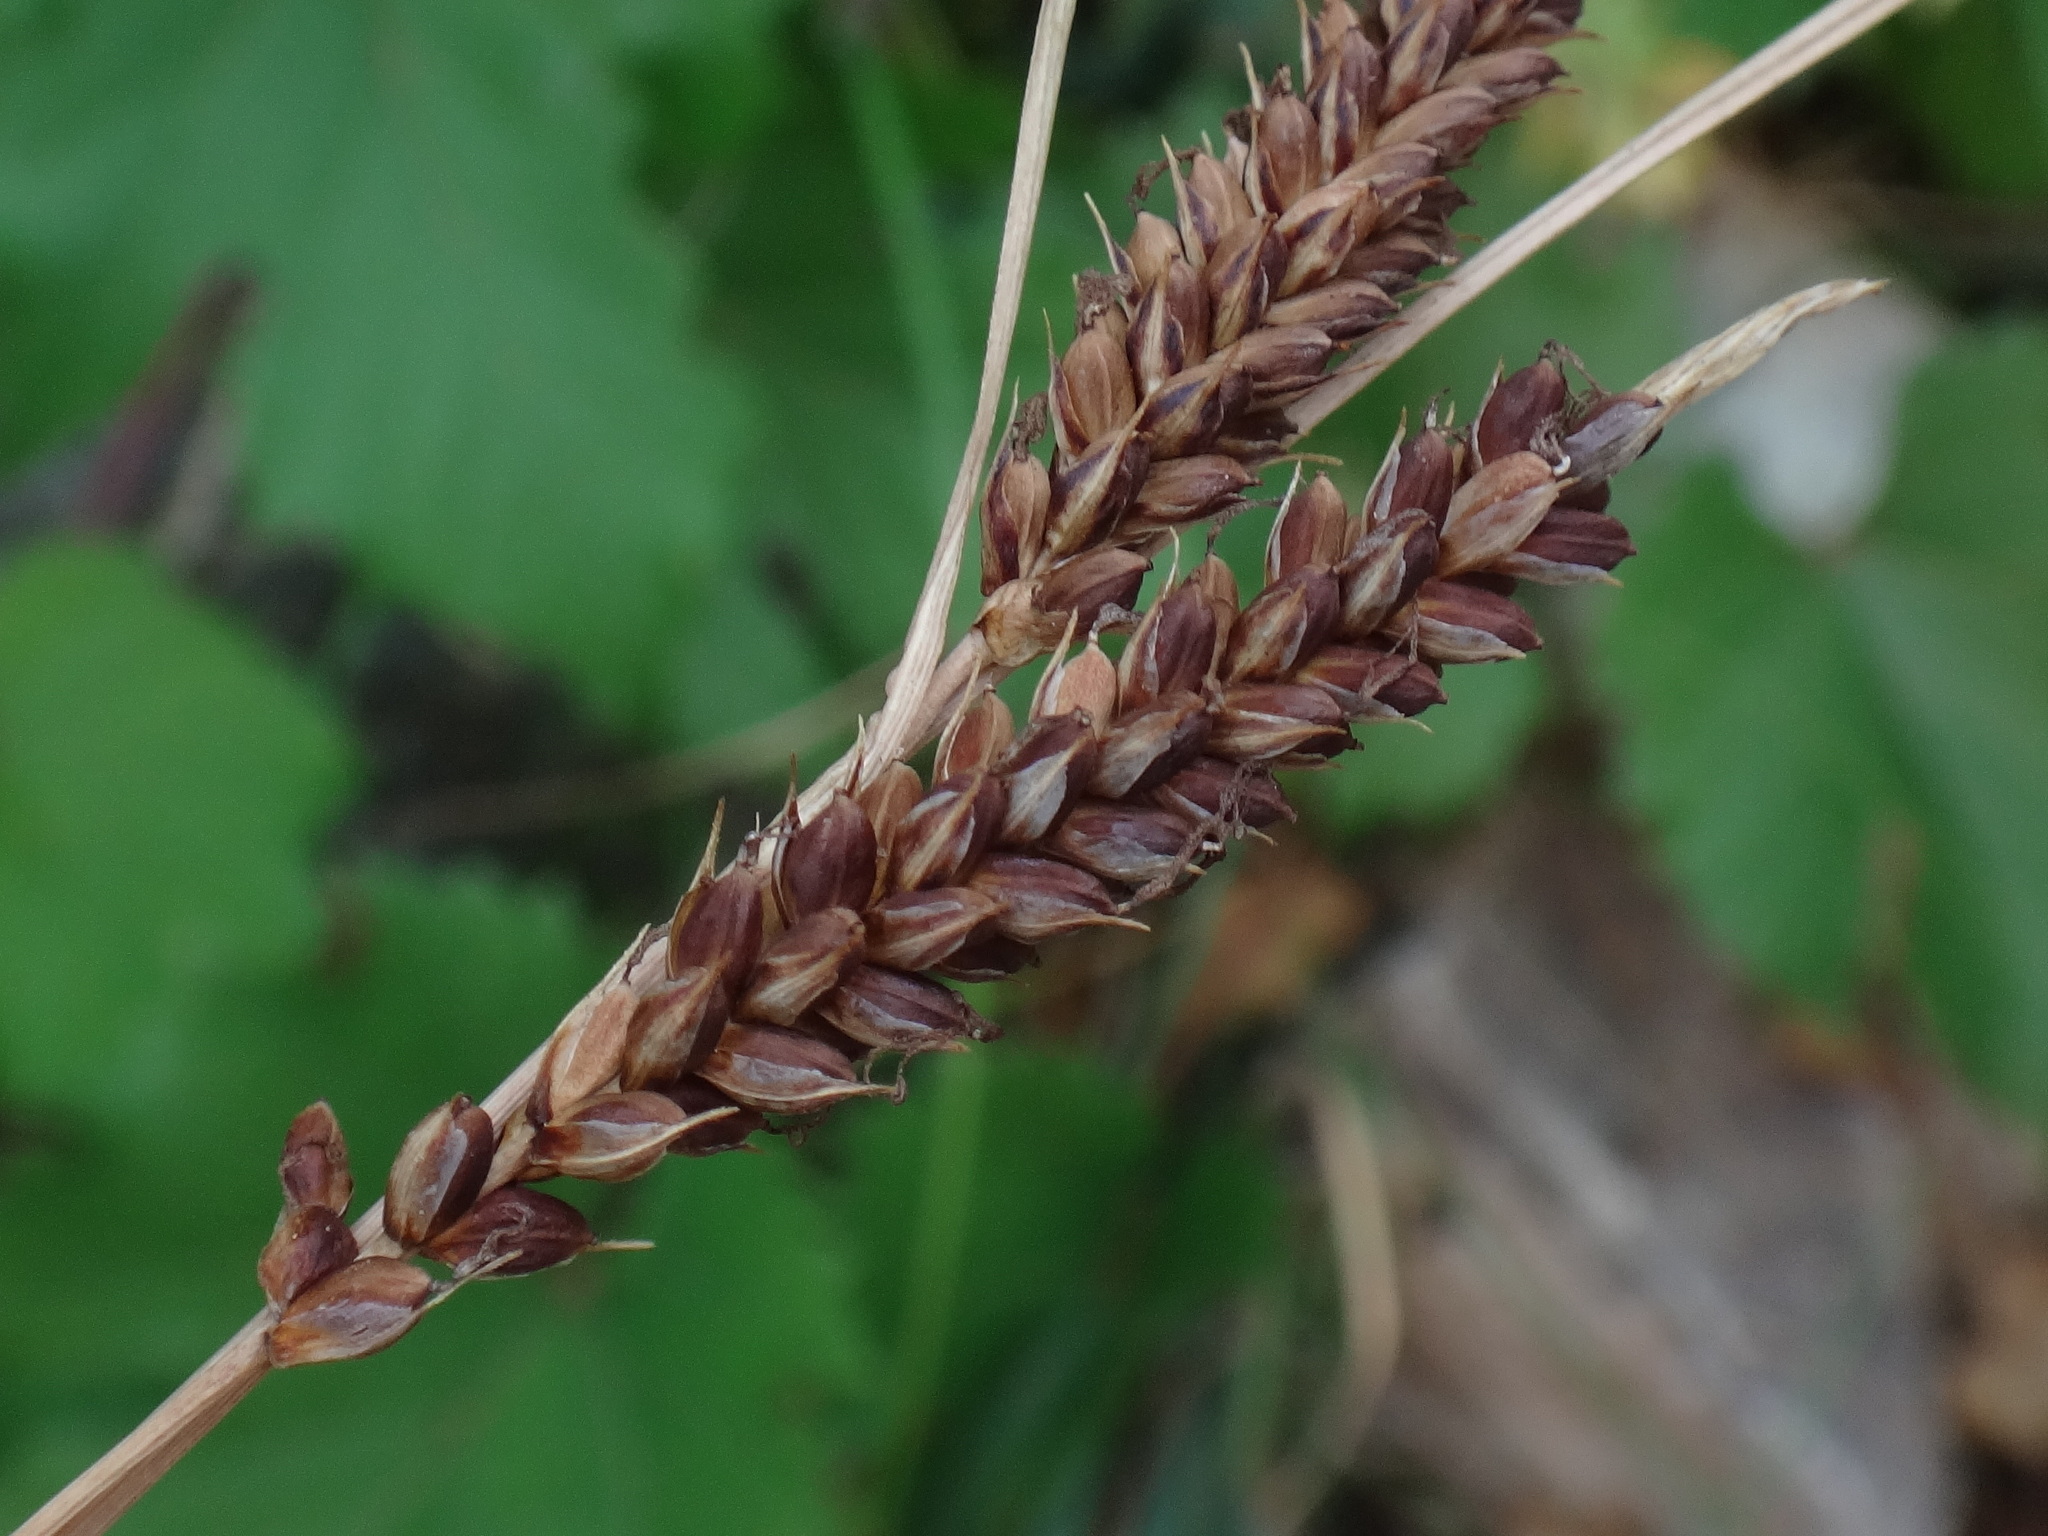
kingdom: Plantae
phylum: Tracheophyta
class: Liliopsida
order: Poales
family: Cyperaceae
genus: Carex
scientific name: Carex flacca
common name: Glaucous sedge
